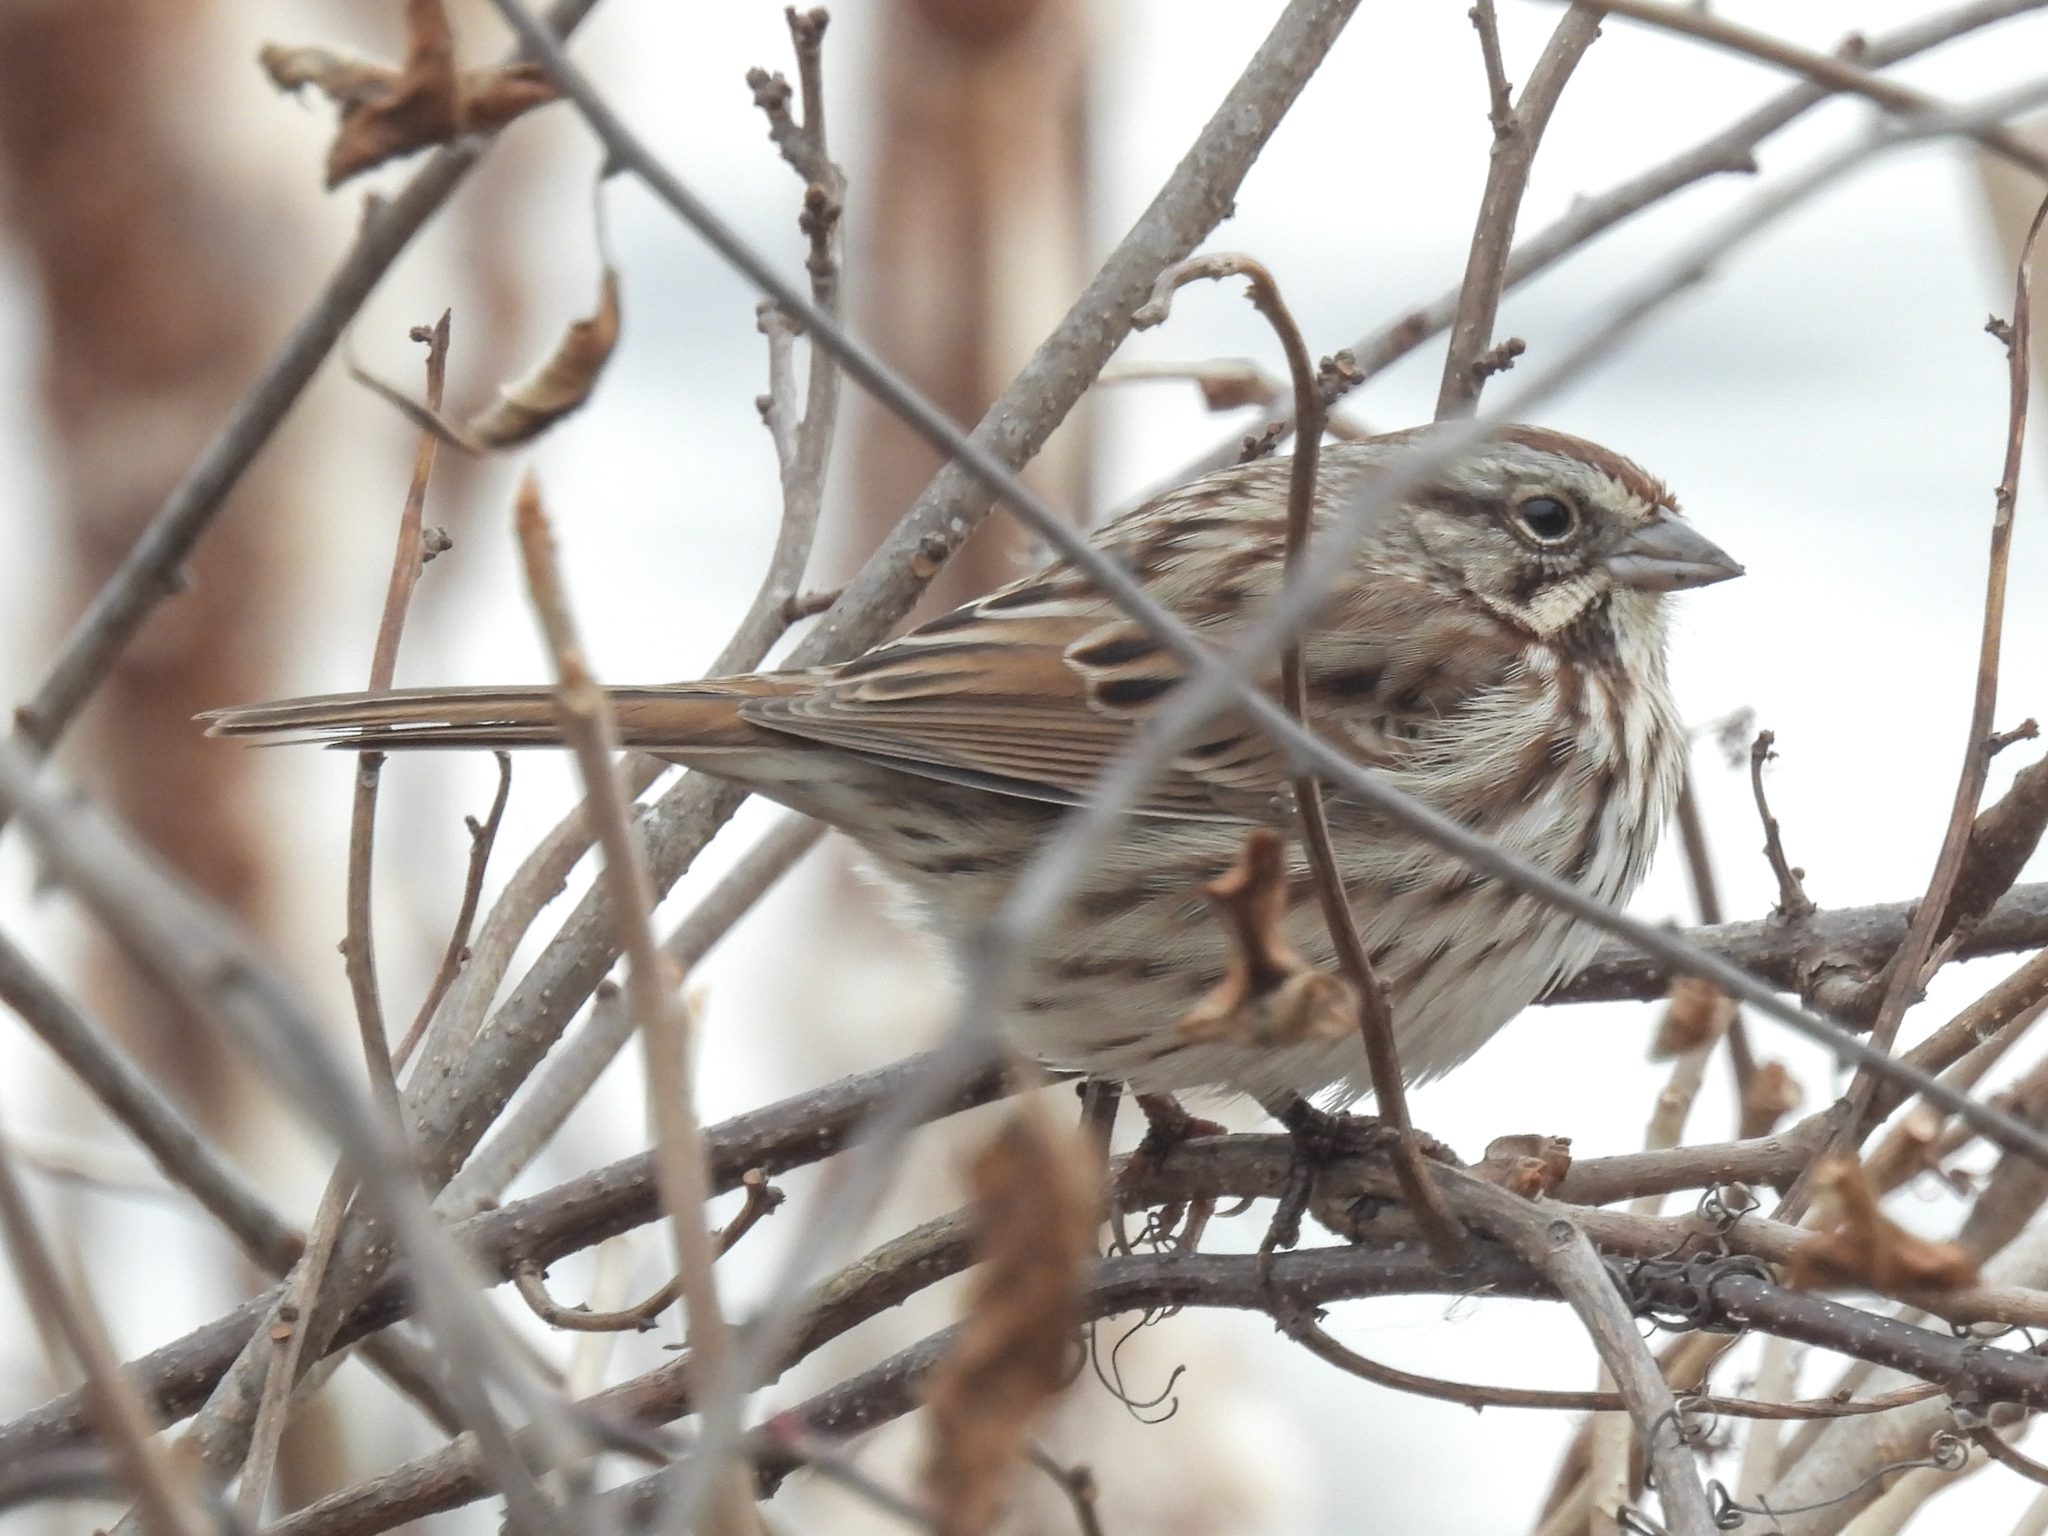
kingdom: Animalia
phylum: Chordata
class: Aves
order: Passeriformes
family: Passerellidae
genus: Melospiza
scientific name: Melospiza melodia
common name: Song sparrow
